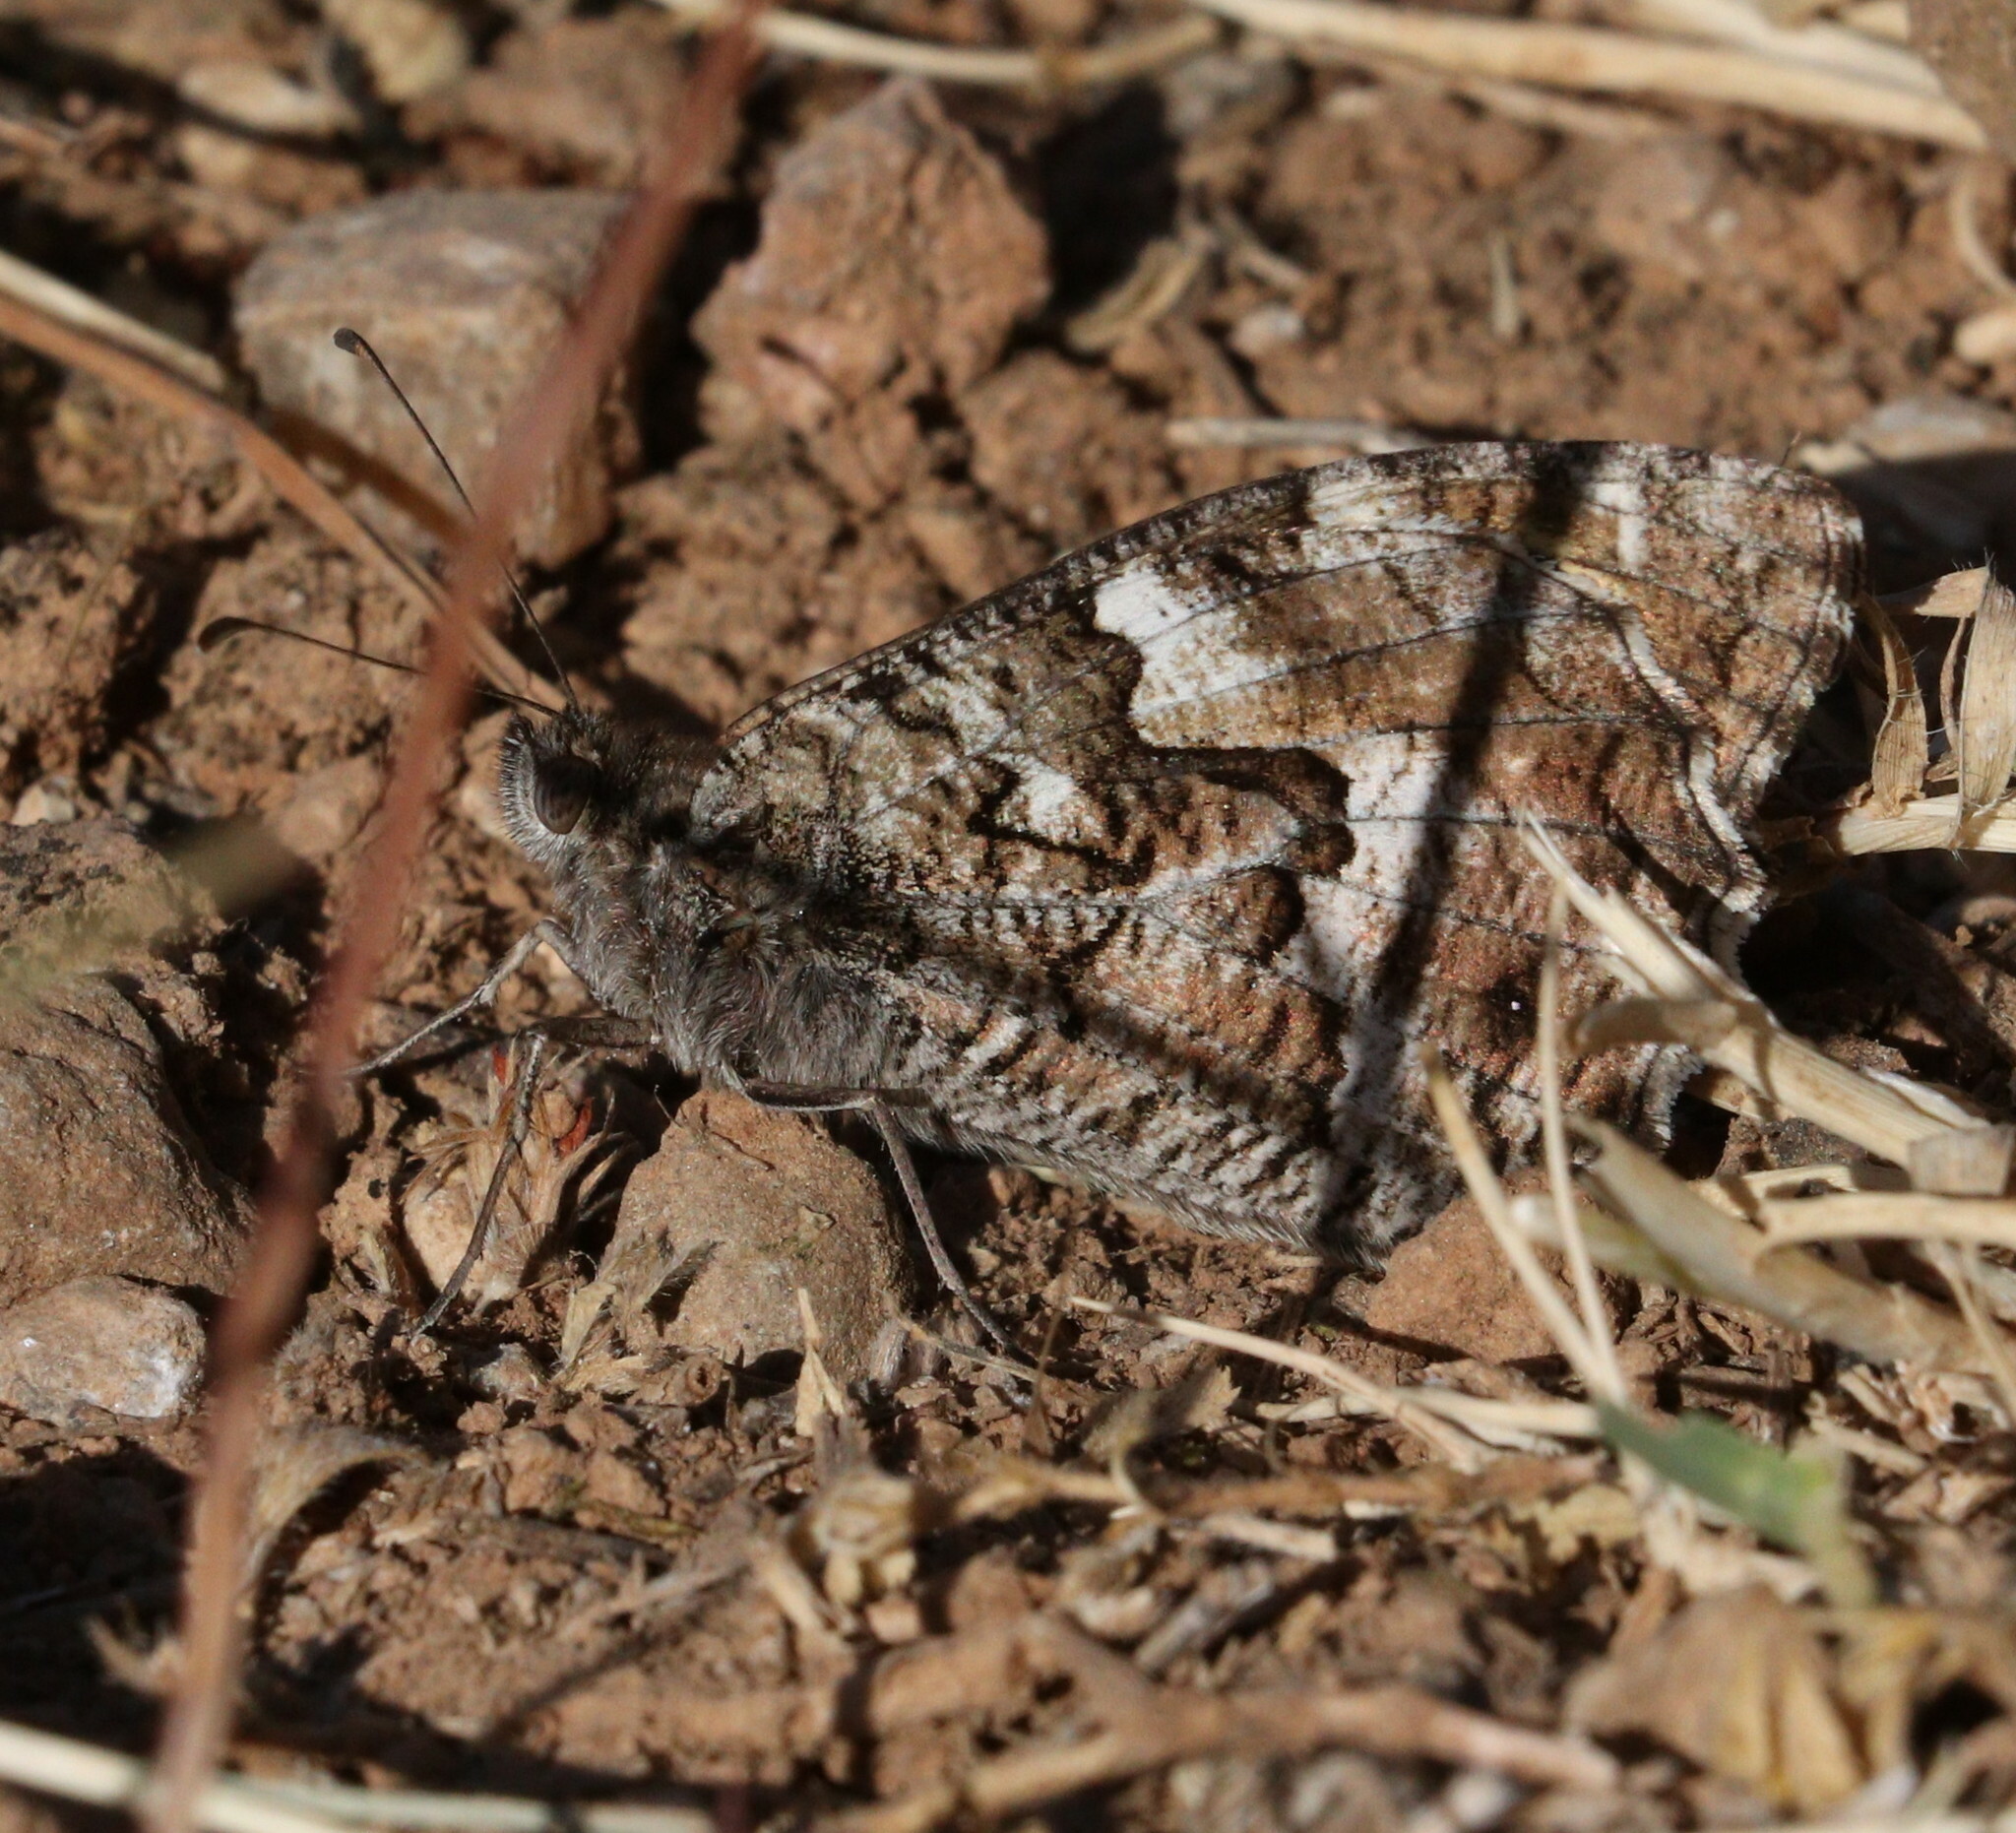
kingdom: Animalia
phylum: Arthropoda
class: Insecta
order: Lepidoptera
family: Nymphalidae
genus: Hipparchia
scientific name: Hipparchia semele
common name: Grayling
